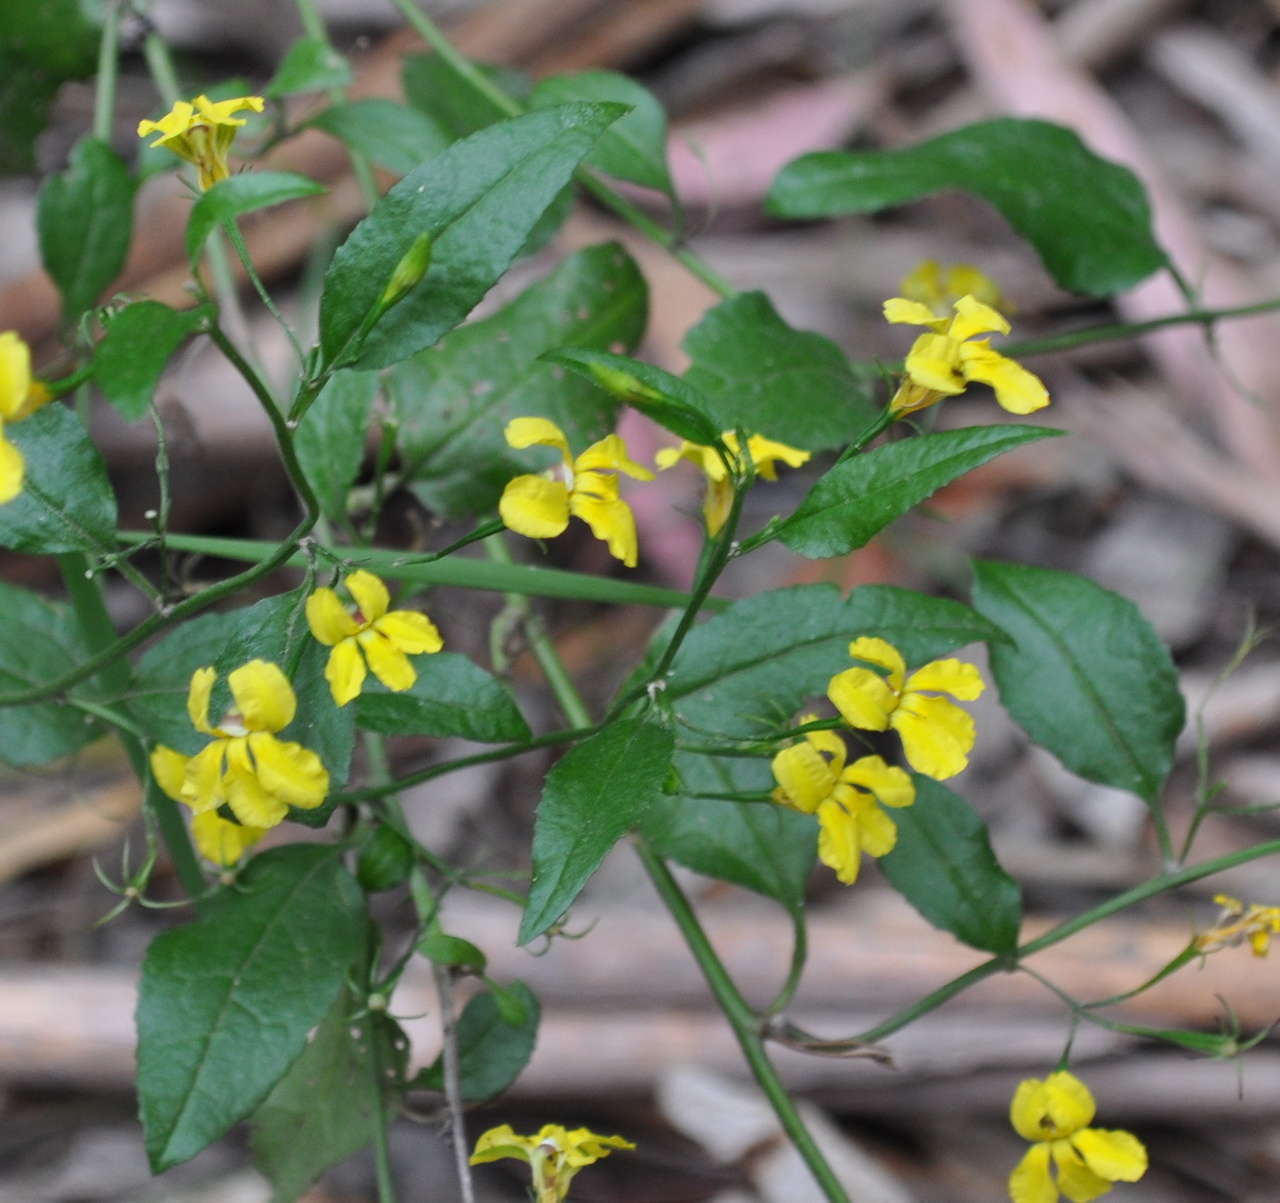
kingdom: Plantae
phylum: Tracheophyta
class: Magnoliopsida
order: Asterales
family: Goodeniaceae
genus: Goodenia
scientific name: Goodenia ovata
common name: Hop goodenia
